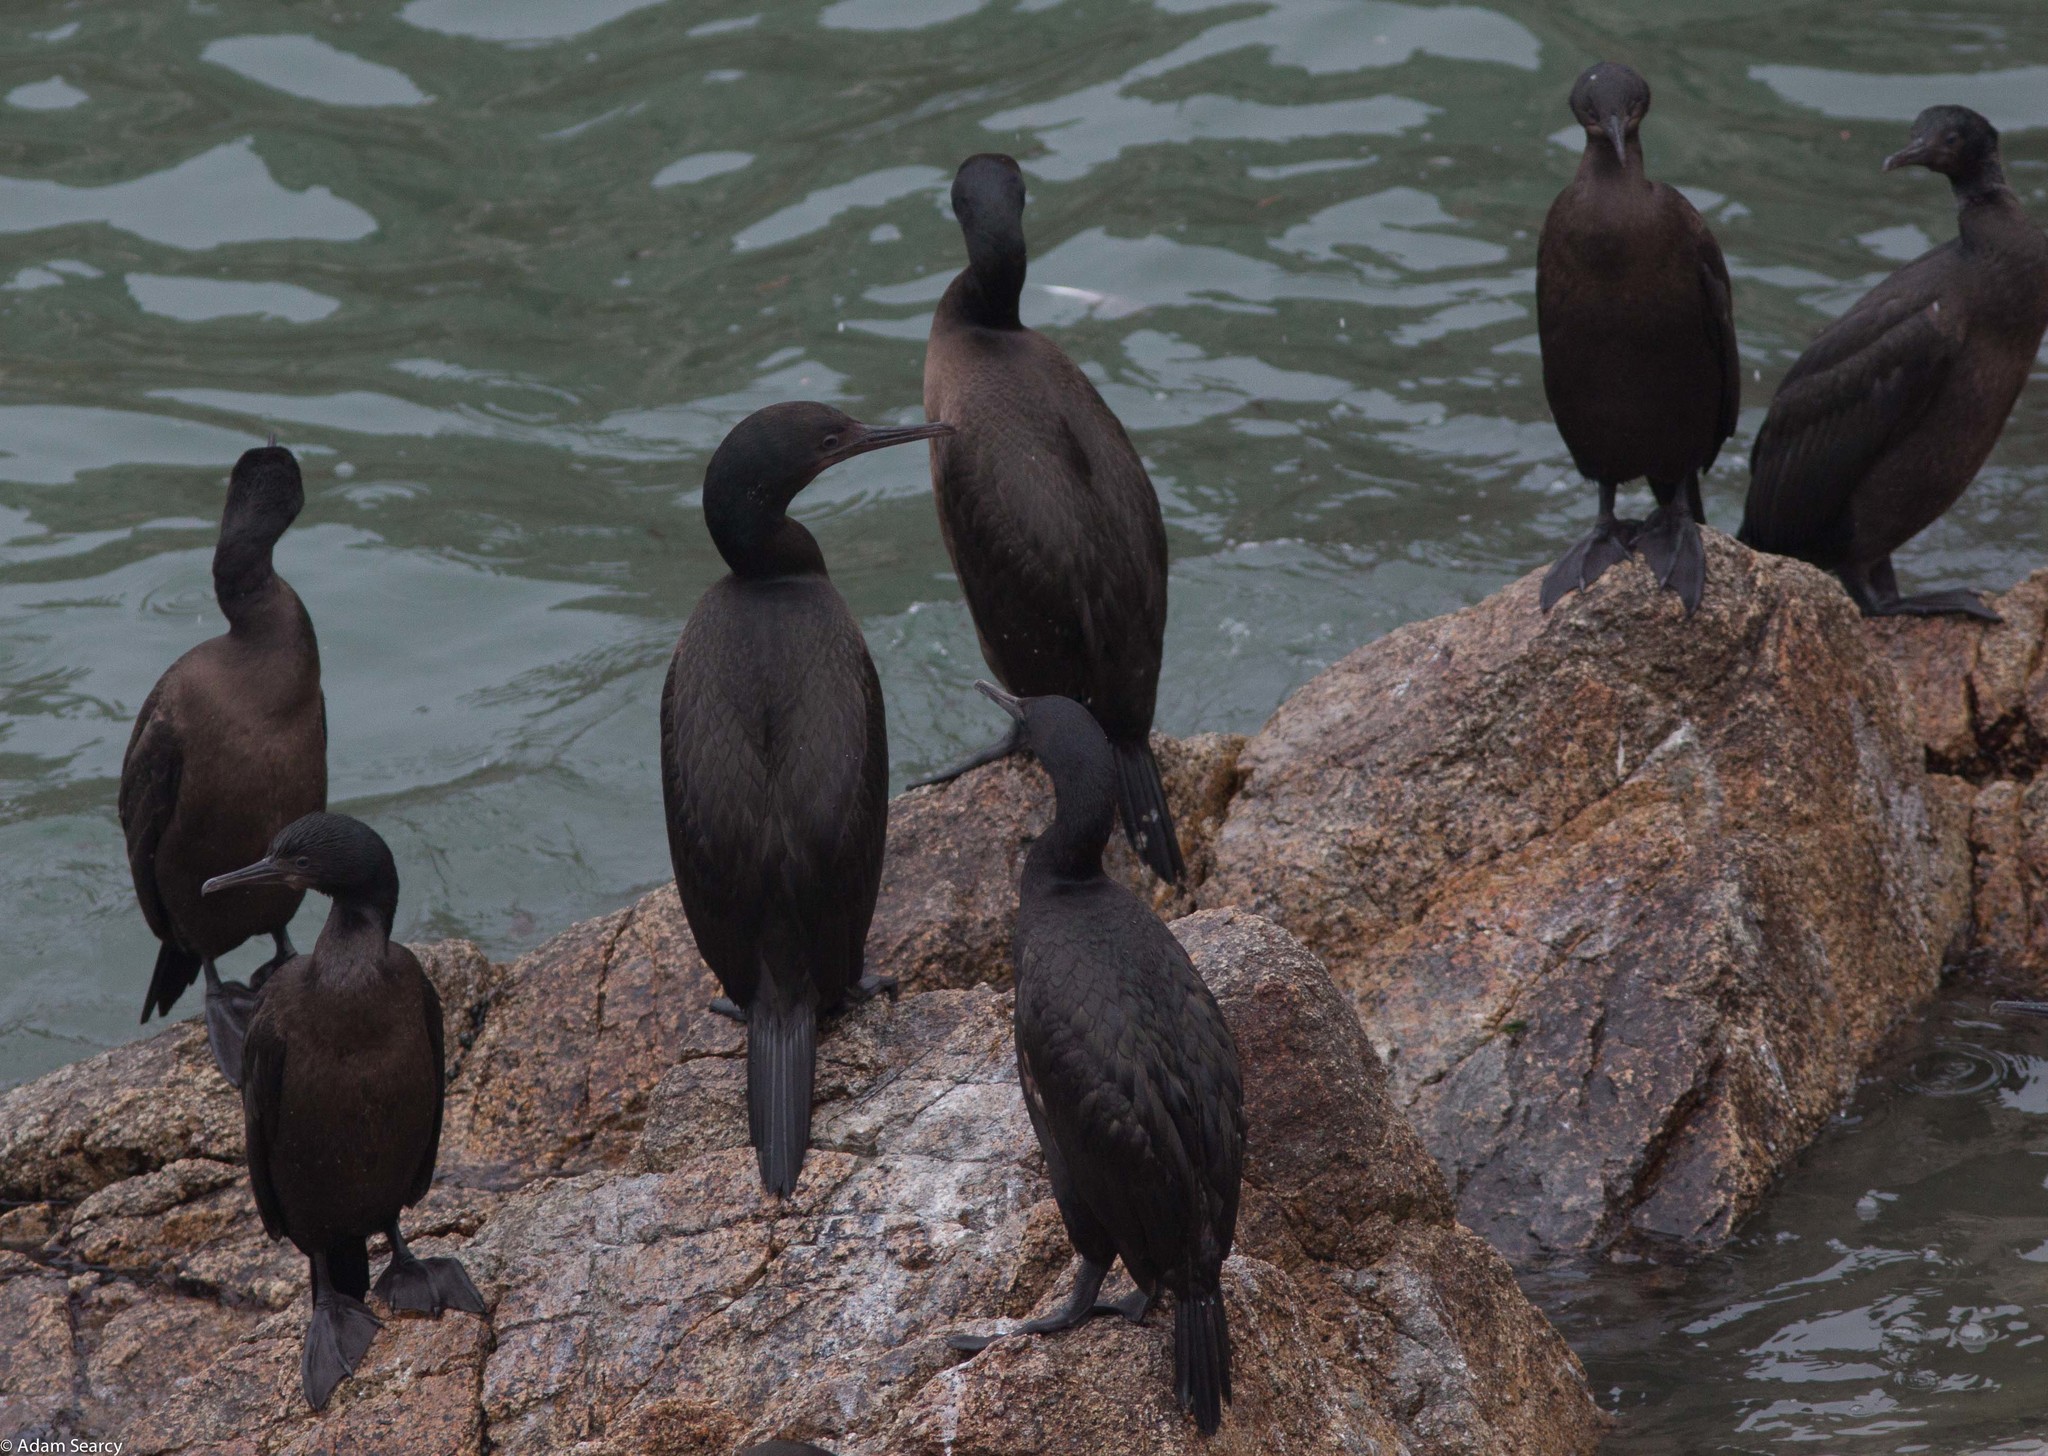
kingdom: Animalia
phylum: Chordata
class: Aves
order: Suliformes
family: Phalacrocoracidae
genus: Urile
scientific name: Urile penicillatus
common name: Brandt's cormorant
